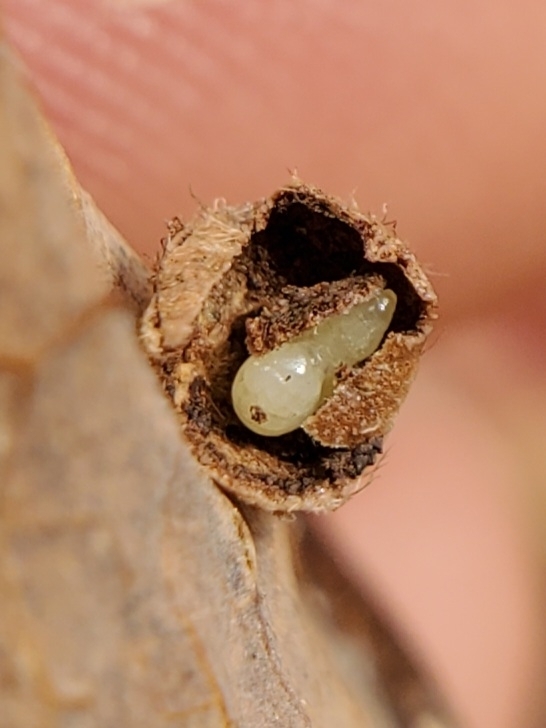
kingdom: Animalia
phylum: Arthropoda
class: Insecta
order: Hymenoptera
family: Cynipidae
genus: Philonix
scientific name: Philonix fulvicollis
